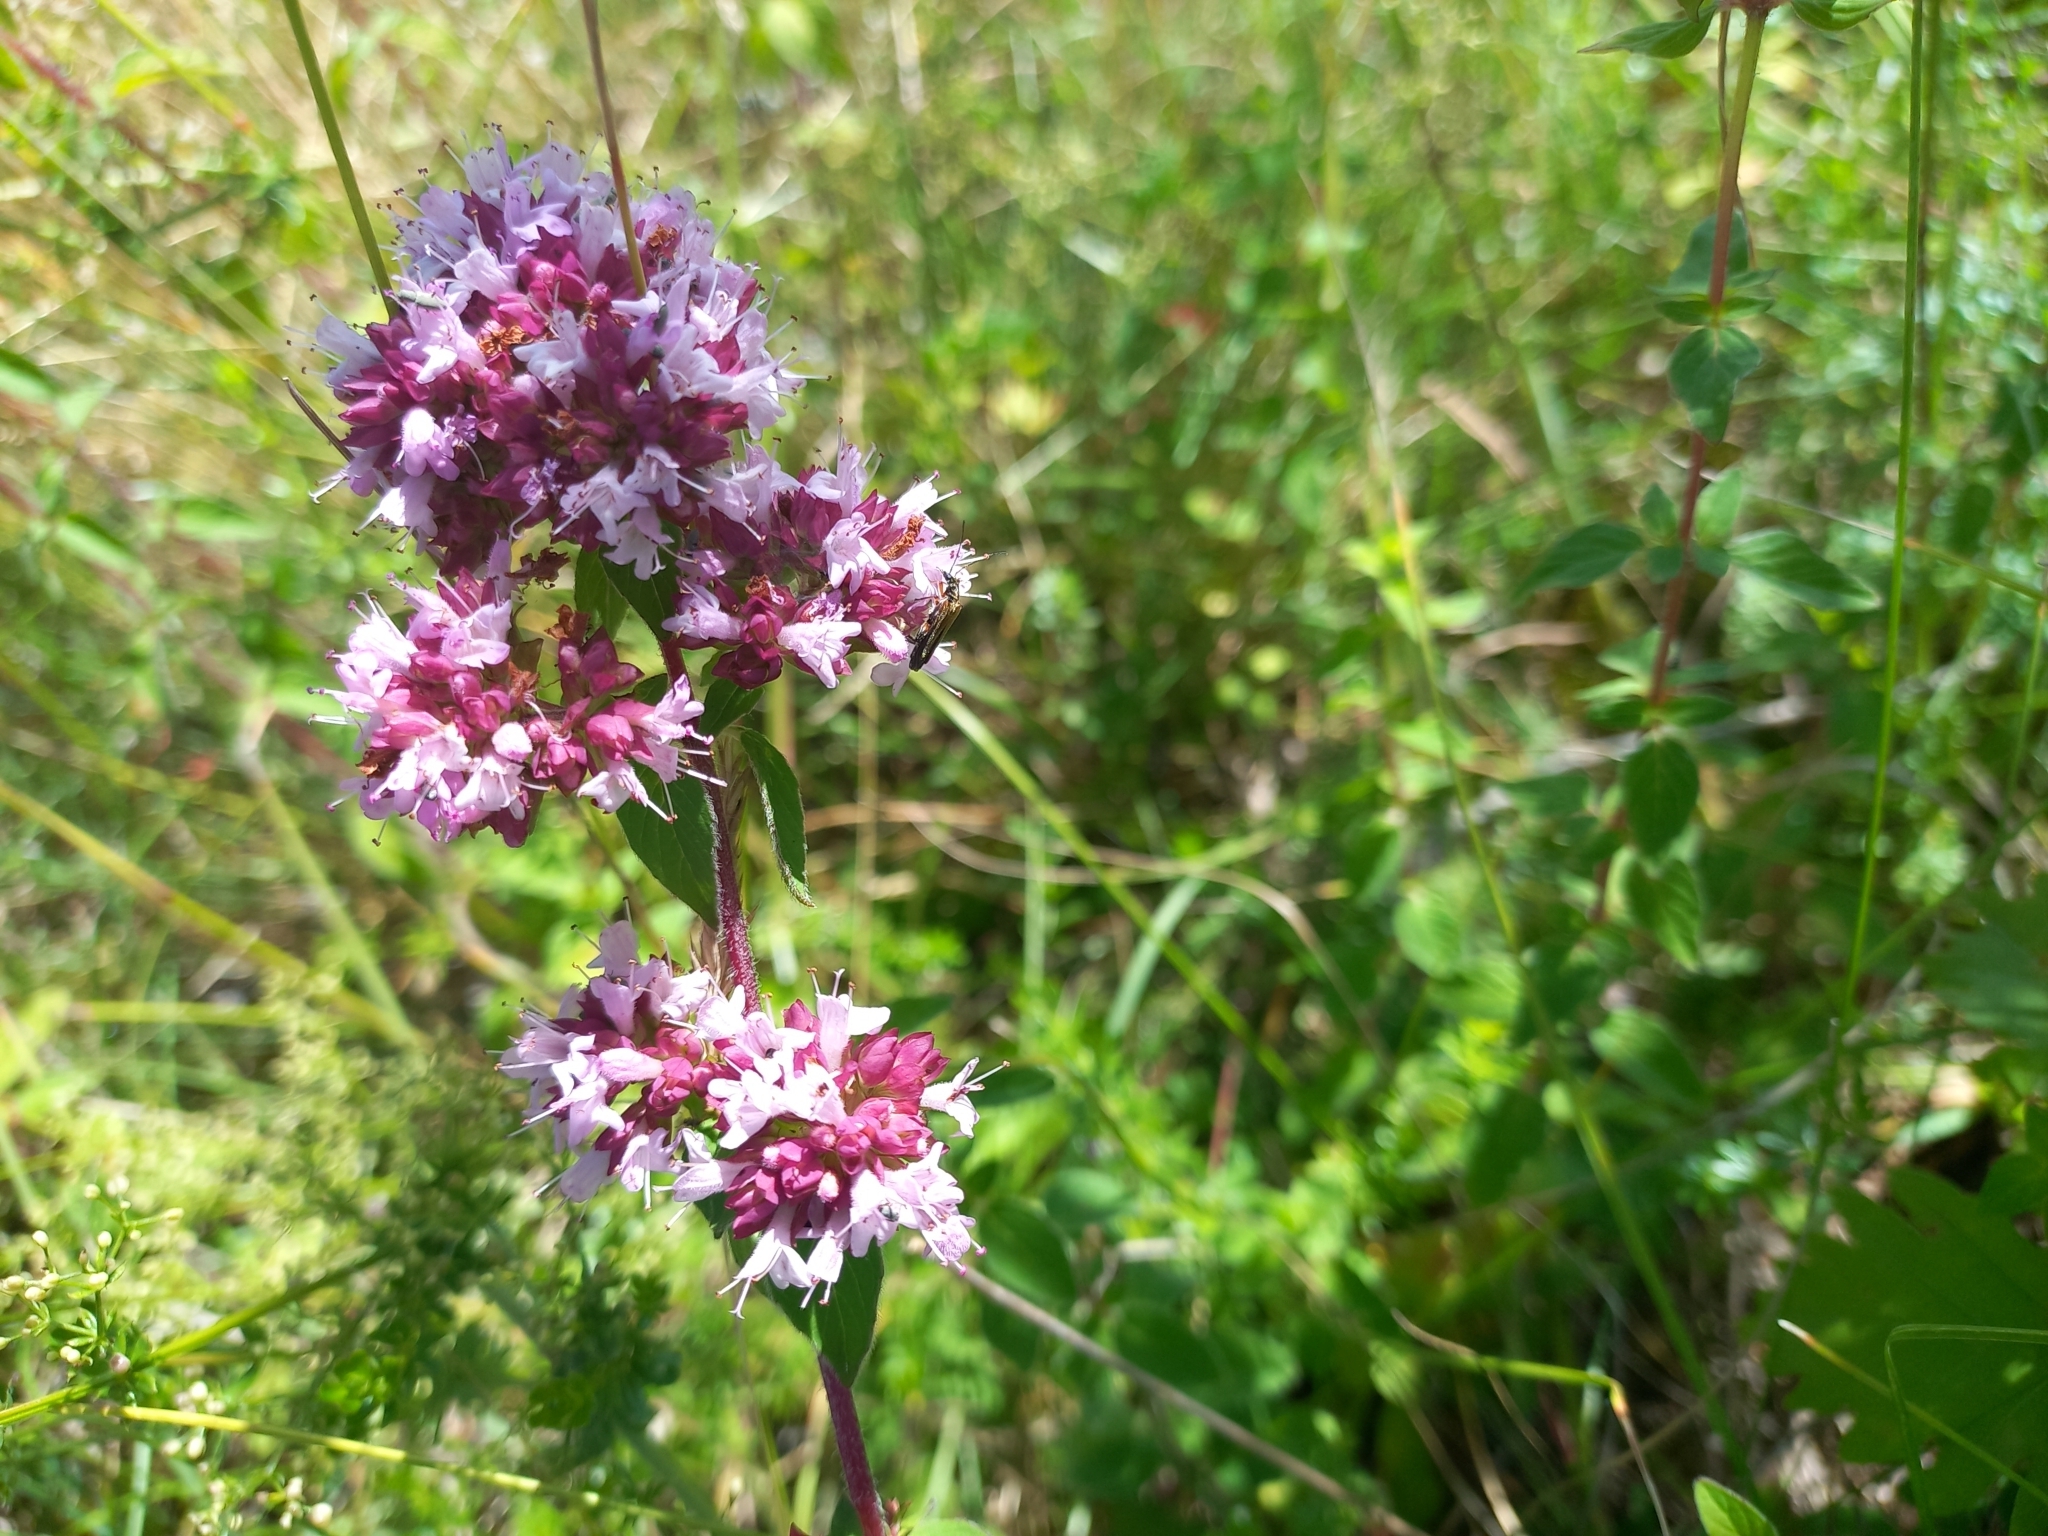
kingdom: Plantae
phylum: Tracheophyta
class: Magnoliopsida
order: Lamiales
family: Lamiaceae
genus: Origanum
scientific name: Origanum vulgare
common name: Wild marjoram
